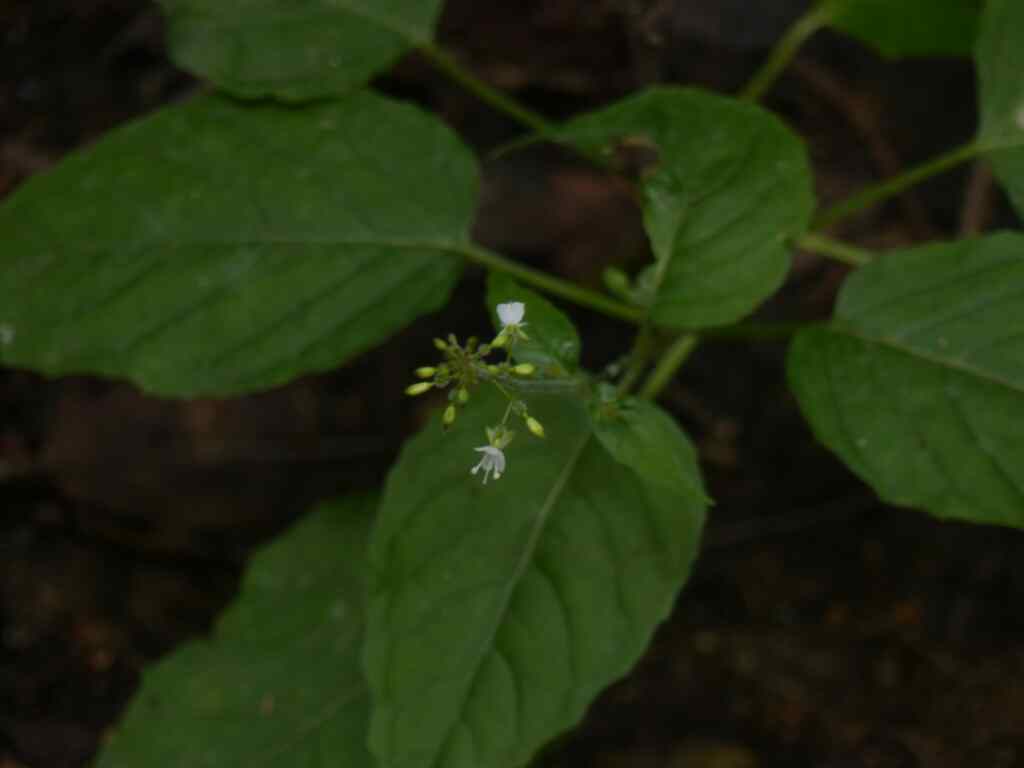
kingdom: Plantae
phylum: Tracheophyta
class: Magnoliopsida
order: Myrtales
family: Onagraceae
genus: Circaea
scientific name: Circaea lutetiana
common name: Enchanter's-nightshade
